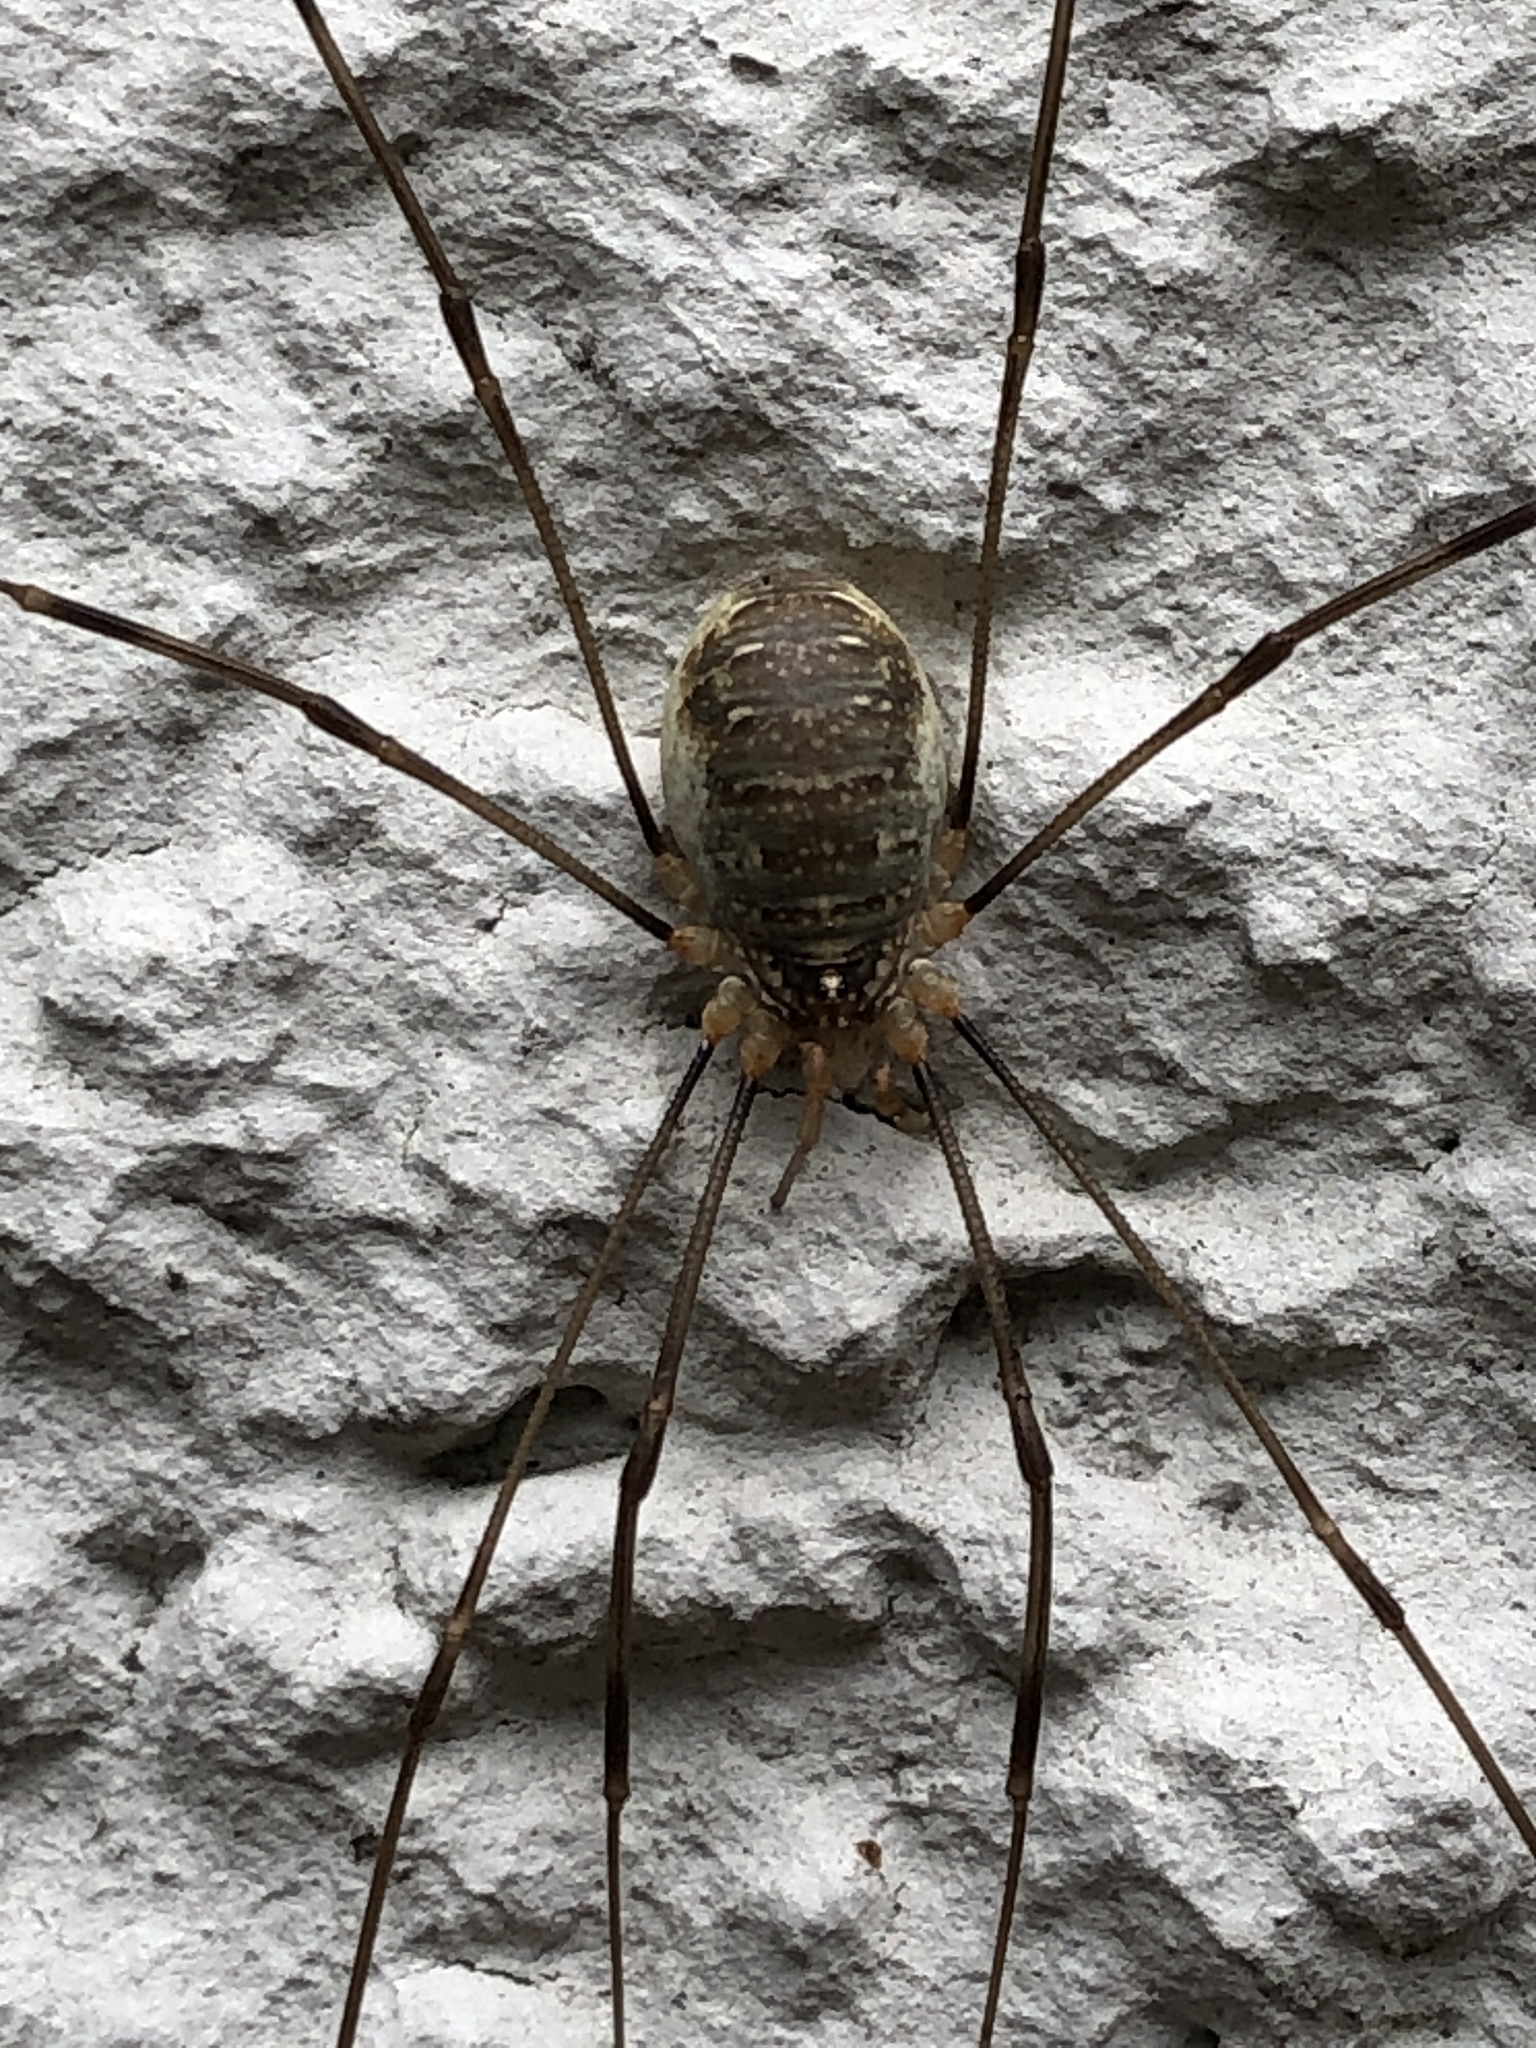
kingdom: Animalia
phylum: Arthropoda
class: Arachnida
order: Opiliones
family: Phalangiidae
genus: Opilio
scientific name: Opilio canestrinii
